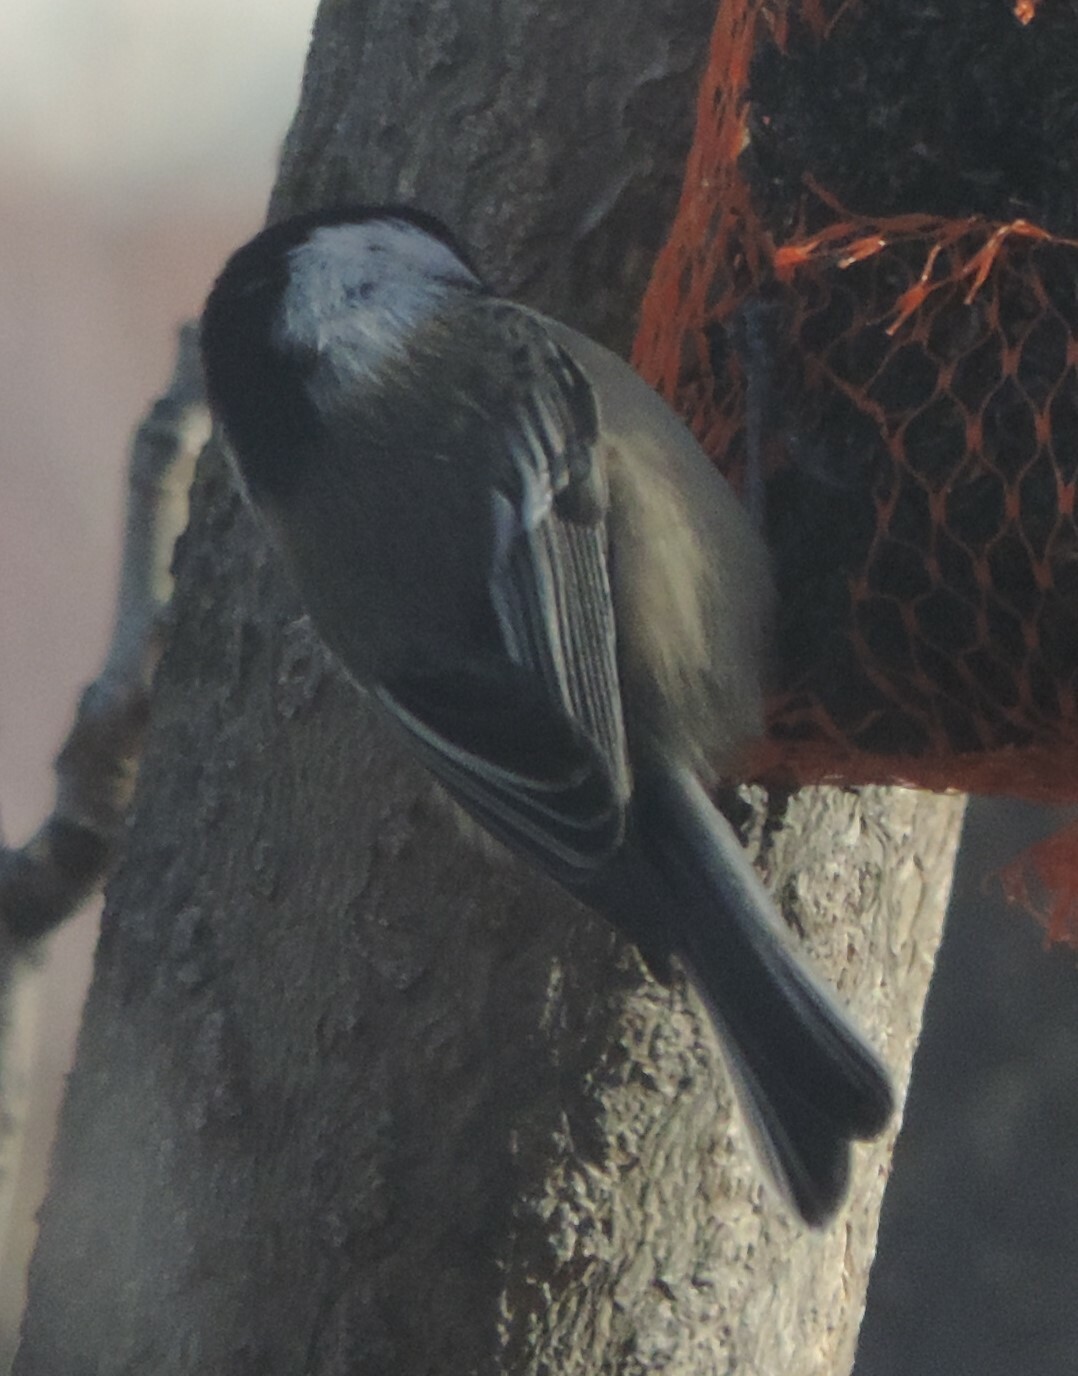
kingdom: Animalia
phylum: Chordata
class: Aves
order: Passeriformes
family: Paridae
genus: Poecile
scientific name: Poecile atricapillus
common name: Black-capped chickadee
